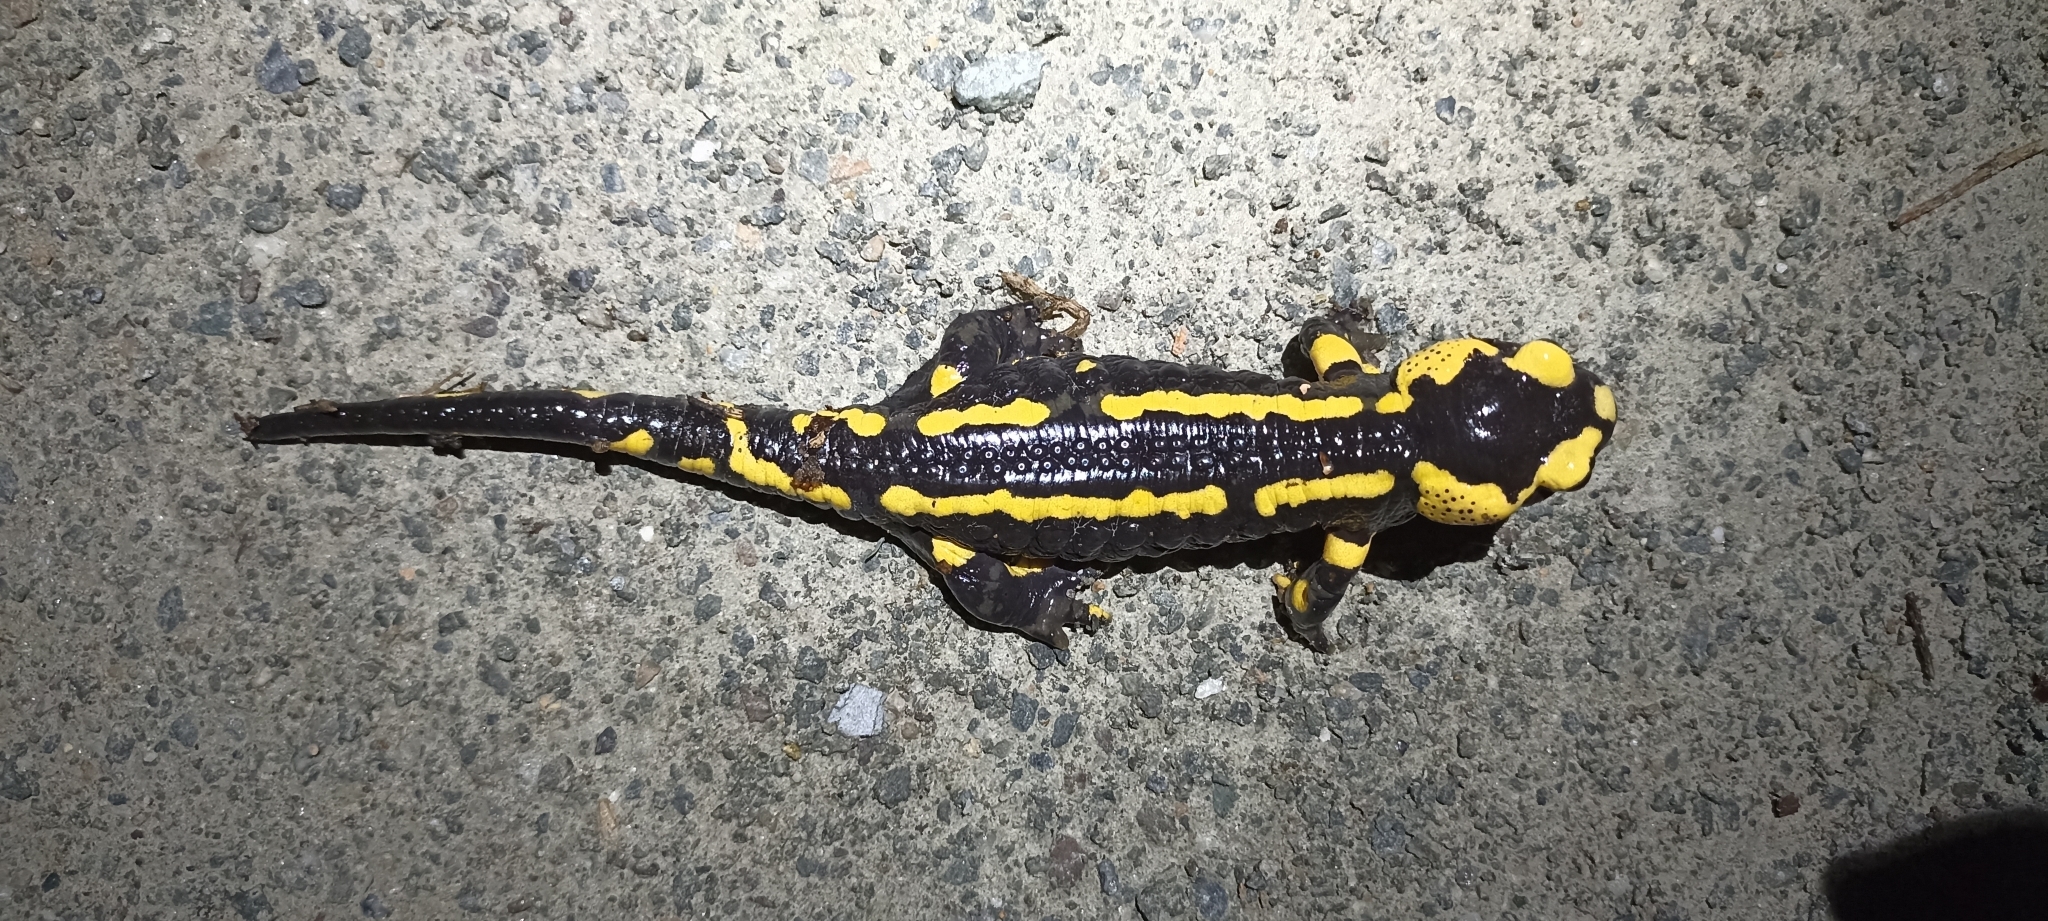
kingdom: Animalia
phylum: Chordata
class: Amphibia
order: Caudata
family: Salamandridae
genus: Salamandra
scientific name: Salamandra salamandra
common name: Fire salamander
